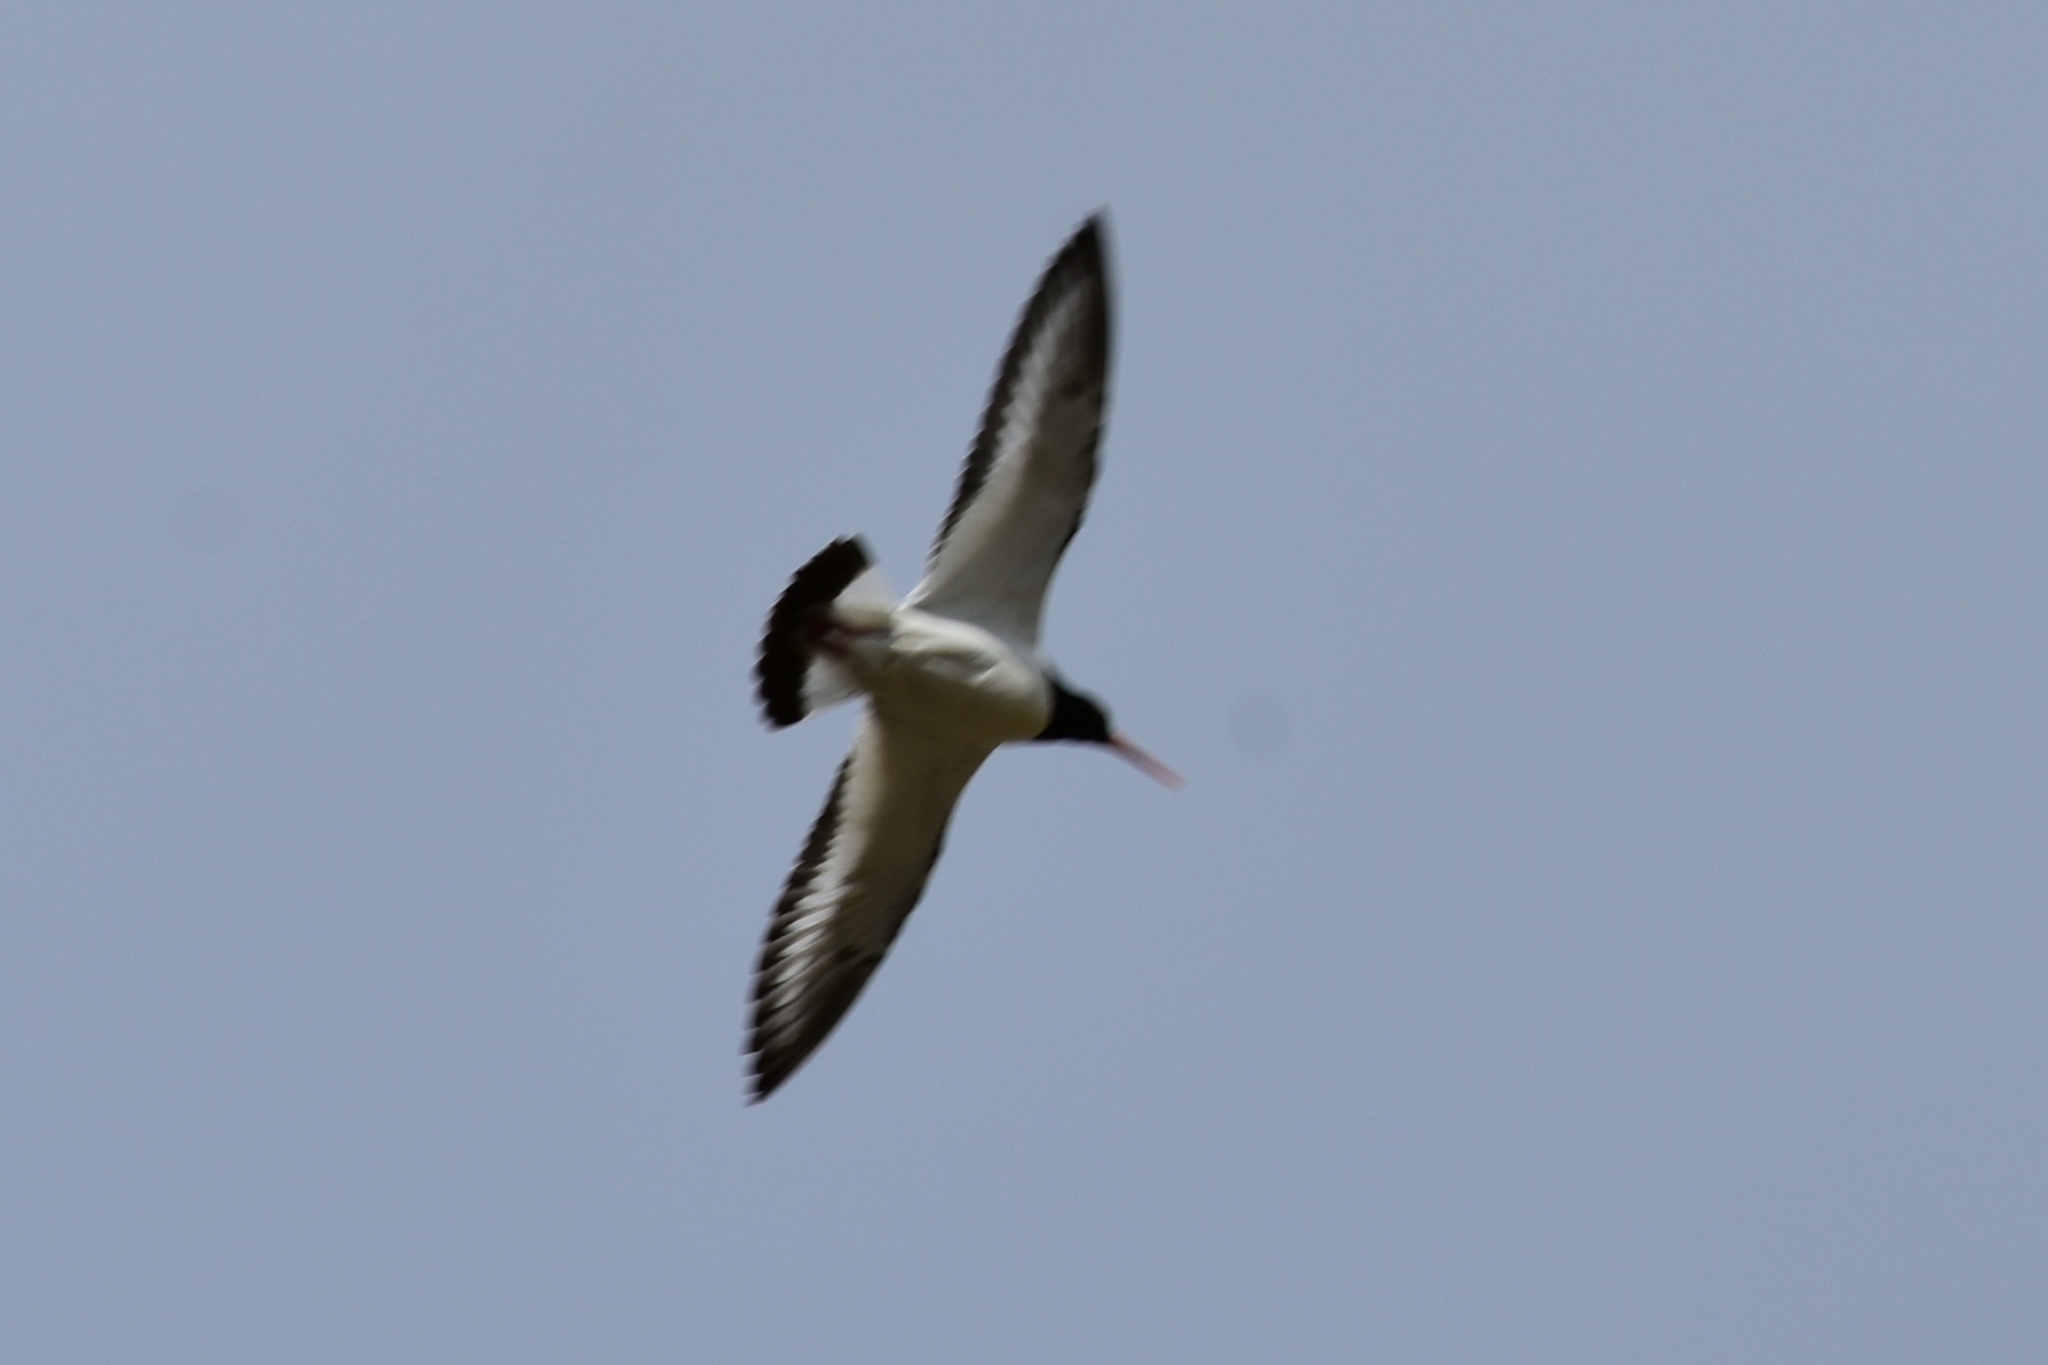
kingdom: Animalia
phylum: Chordata
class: Aves
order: Charadriiformes
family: Haematopodidae
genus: Haematopus
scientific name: Haematopus ostralegus
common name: Eurasian oystercatcher
